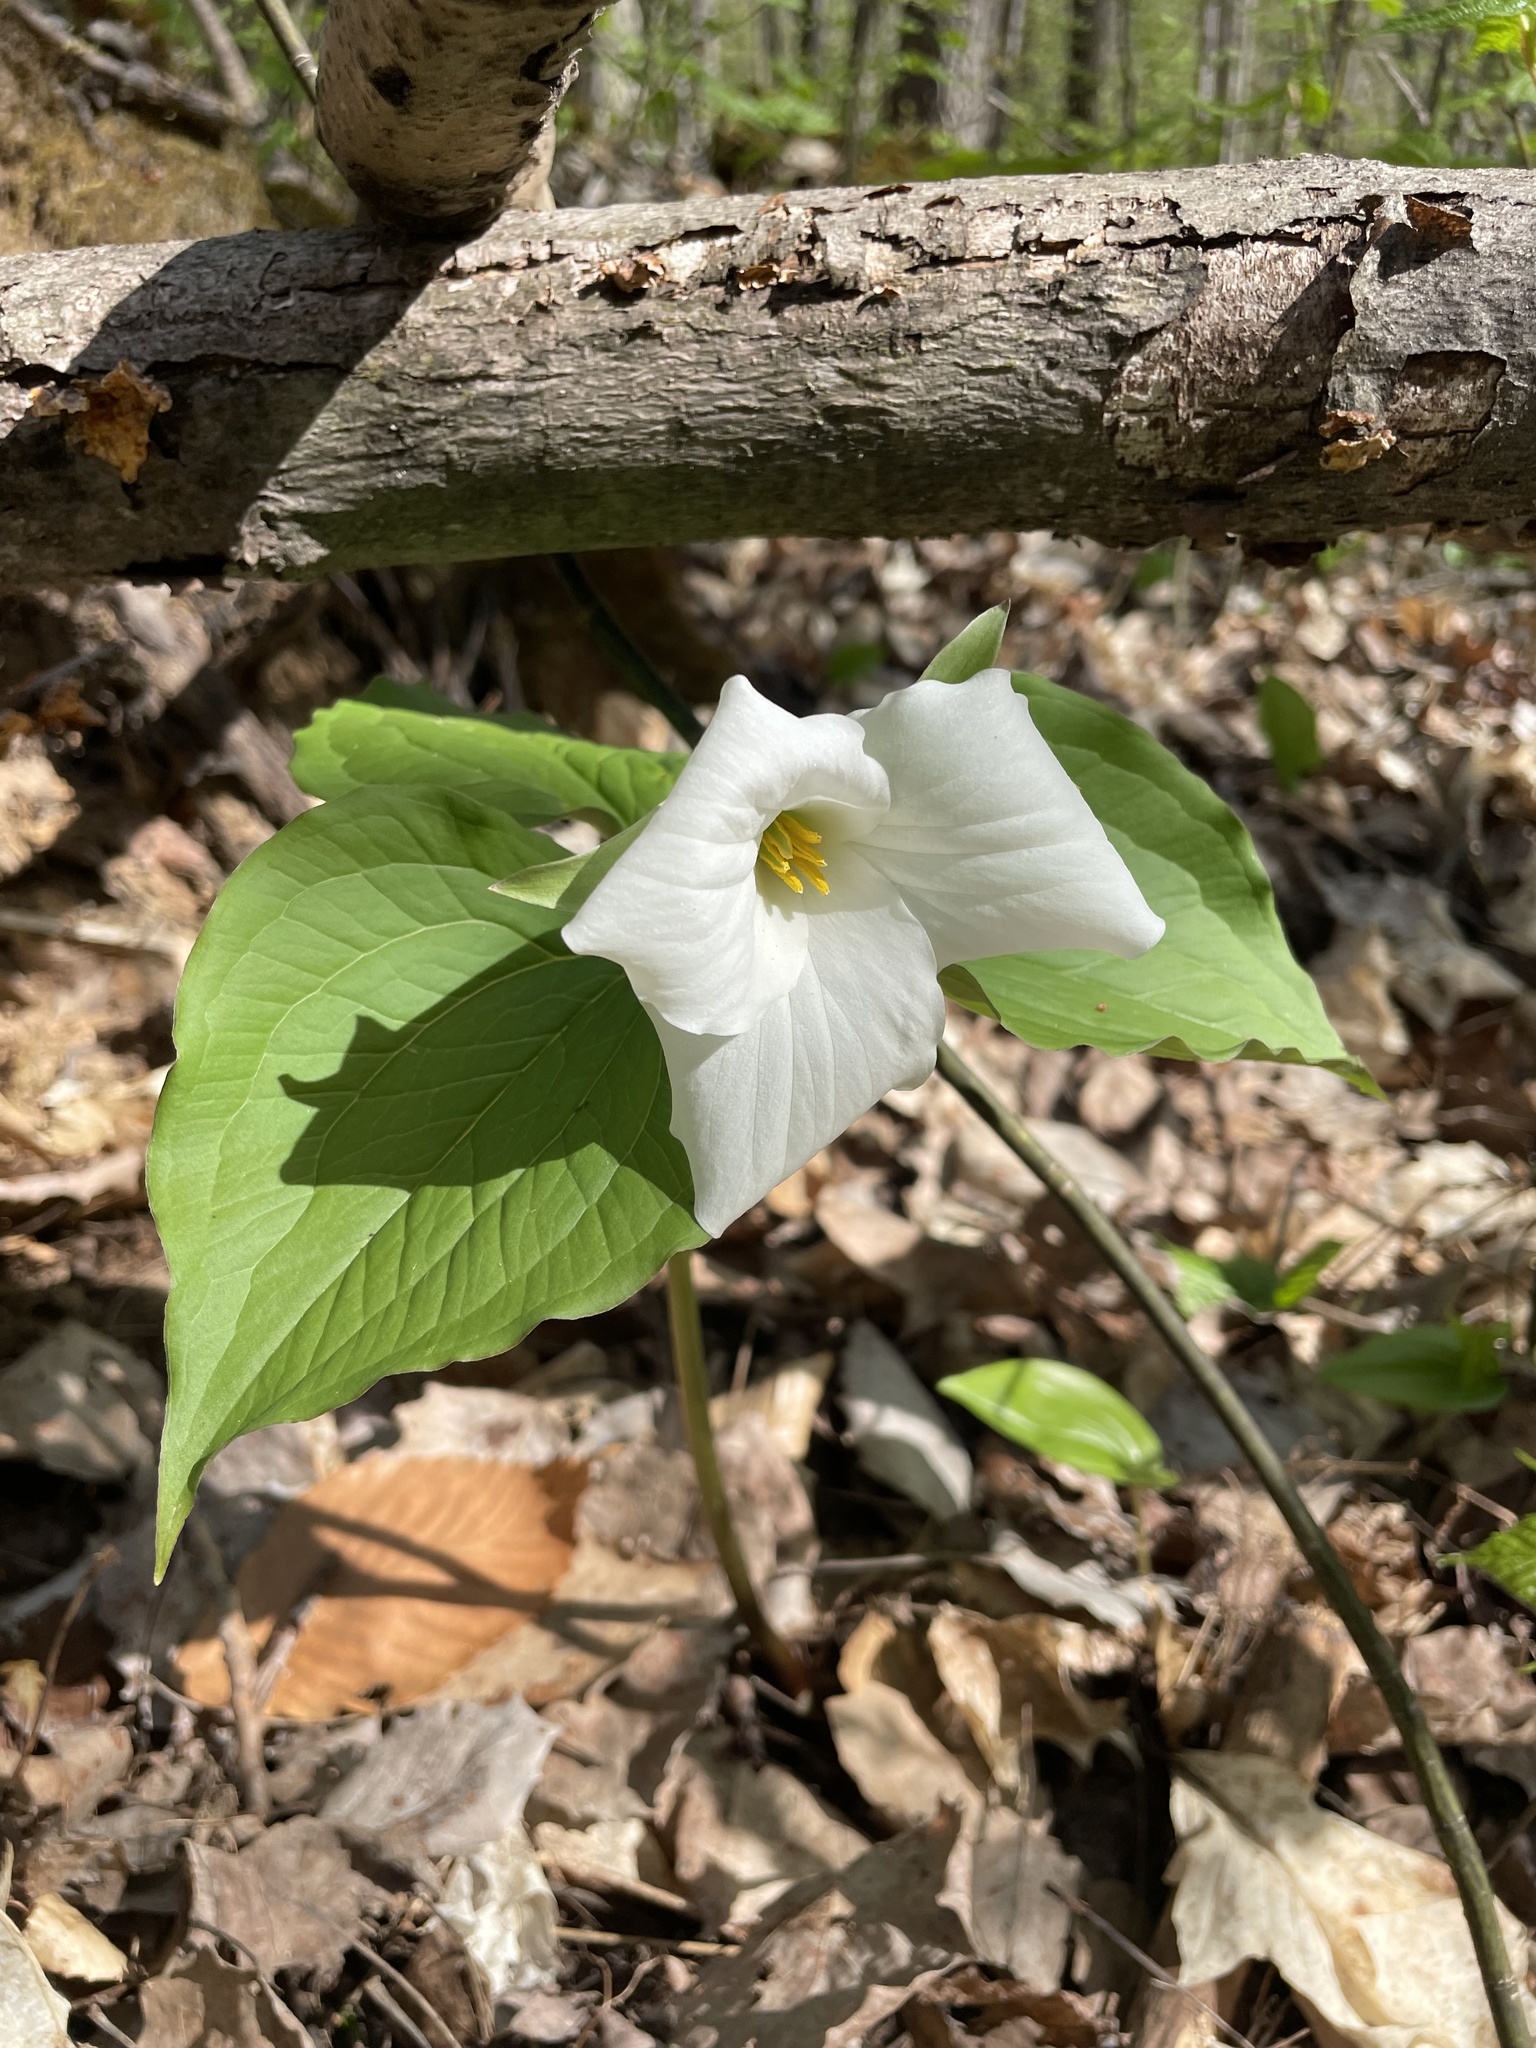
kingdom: Plantae
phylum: Tracheophyta
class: Liliopsida
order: Liliales
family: Melanthiaceae
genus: Trillium
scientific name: Trillium grandiflorum
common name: Great white trillium
